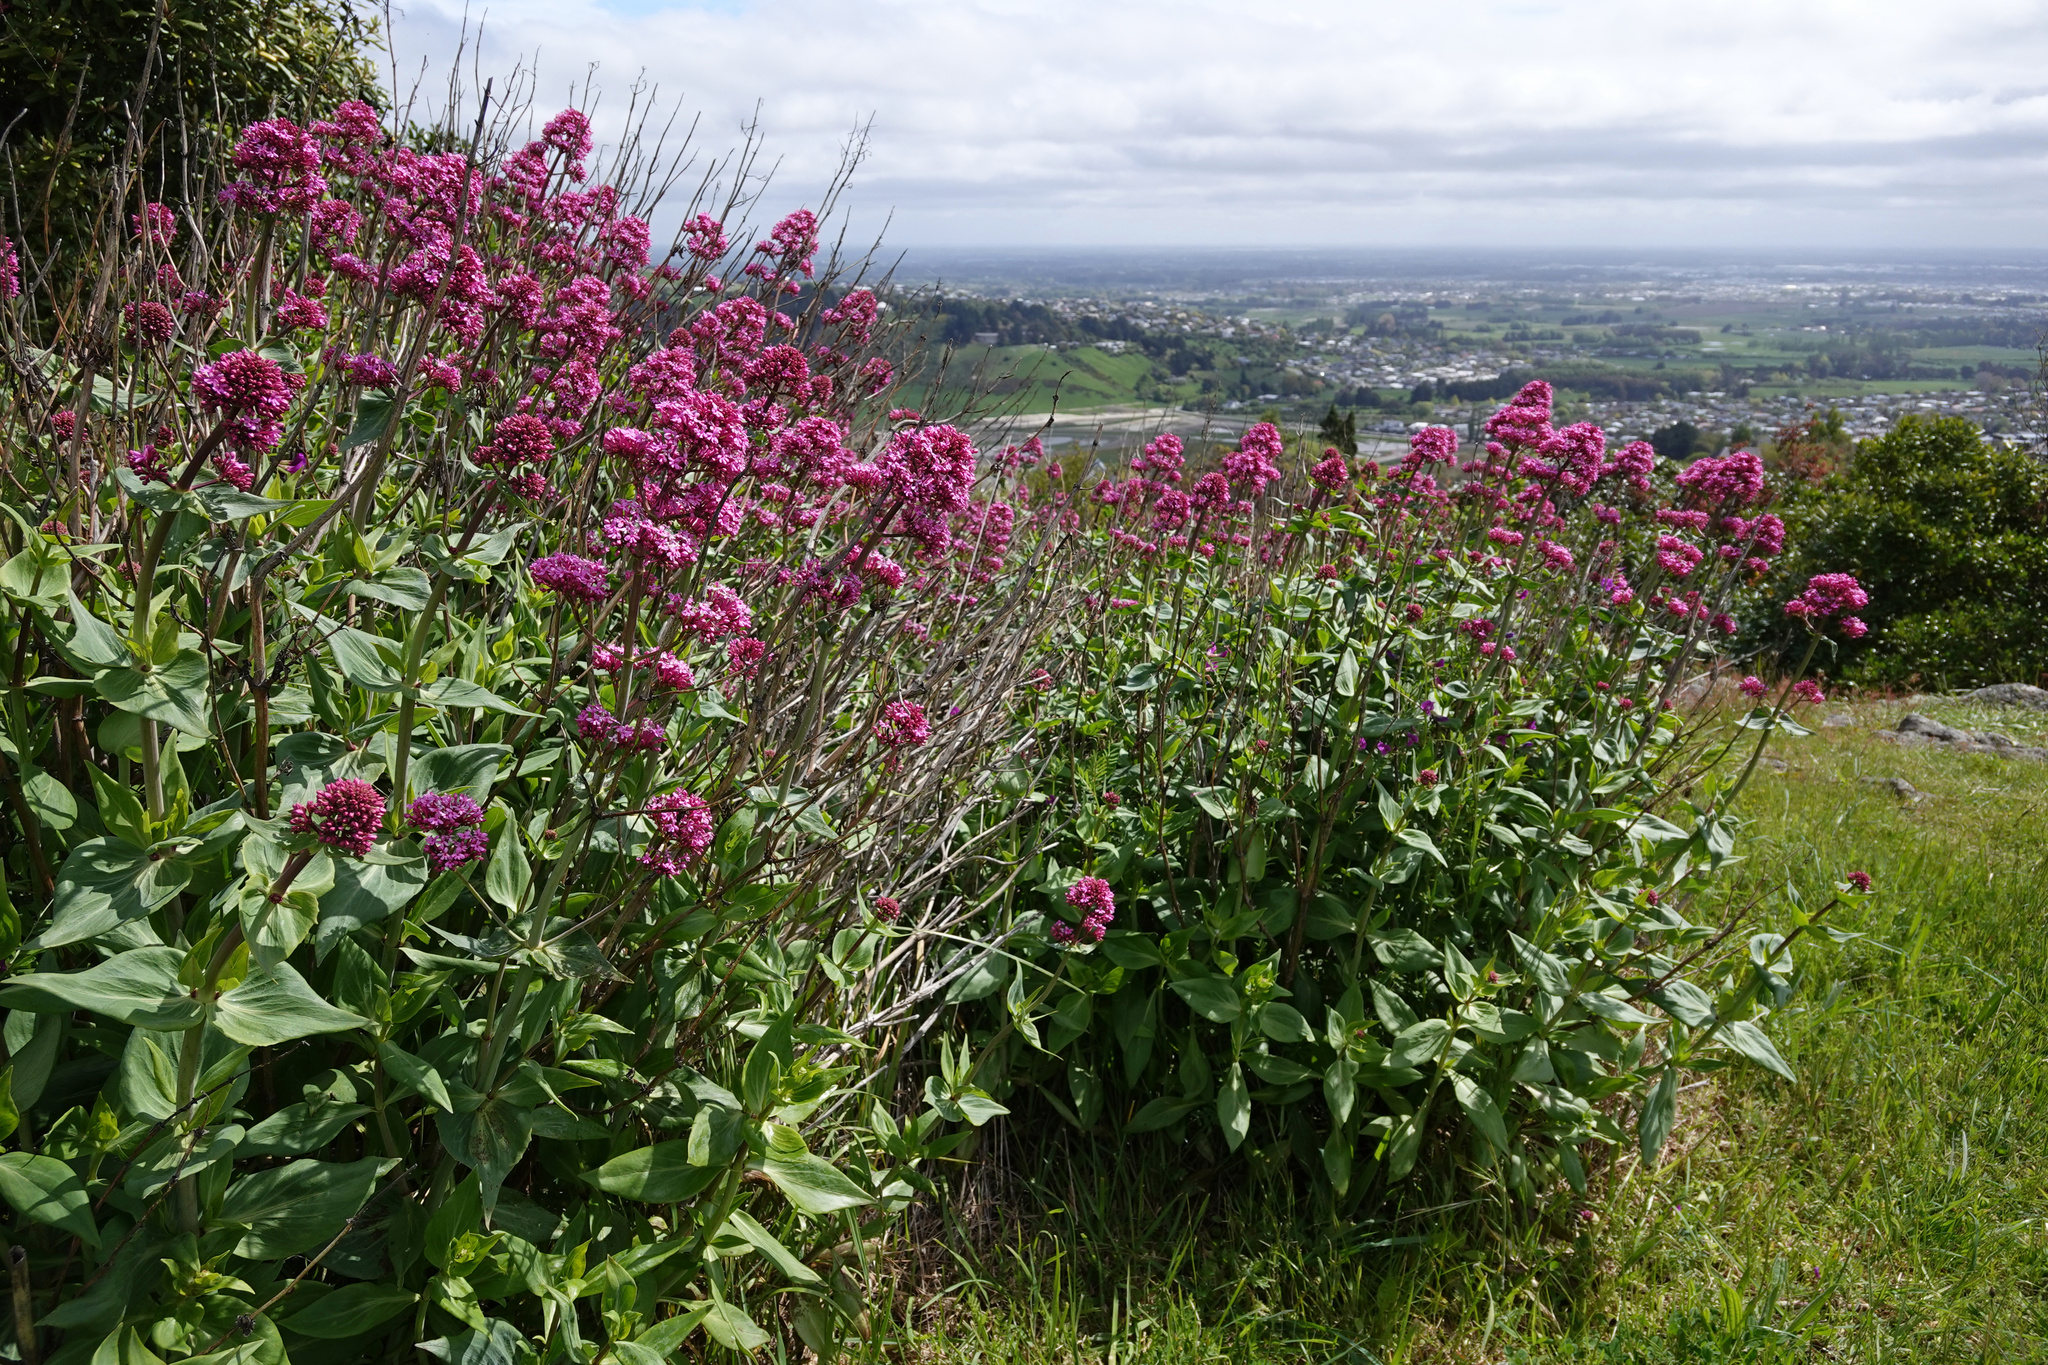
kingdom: Plantae
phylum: Tracheophyta
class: Magnoliopsida
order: Dipsacales
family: Caprifoliaceae
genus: Centranthus
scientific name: Centranthus ruber
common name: Red valerian
